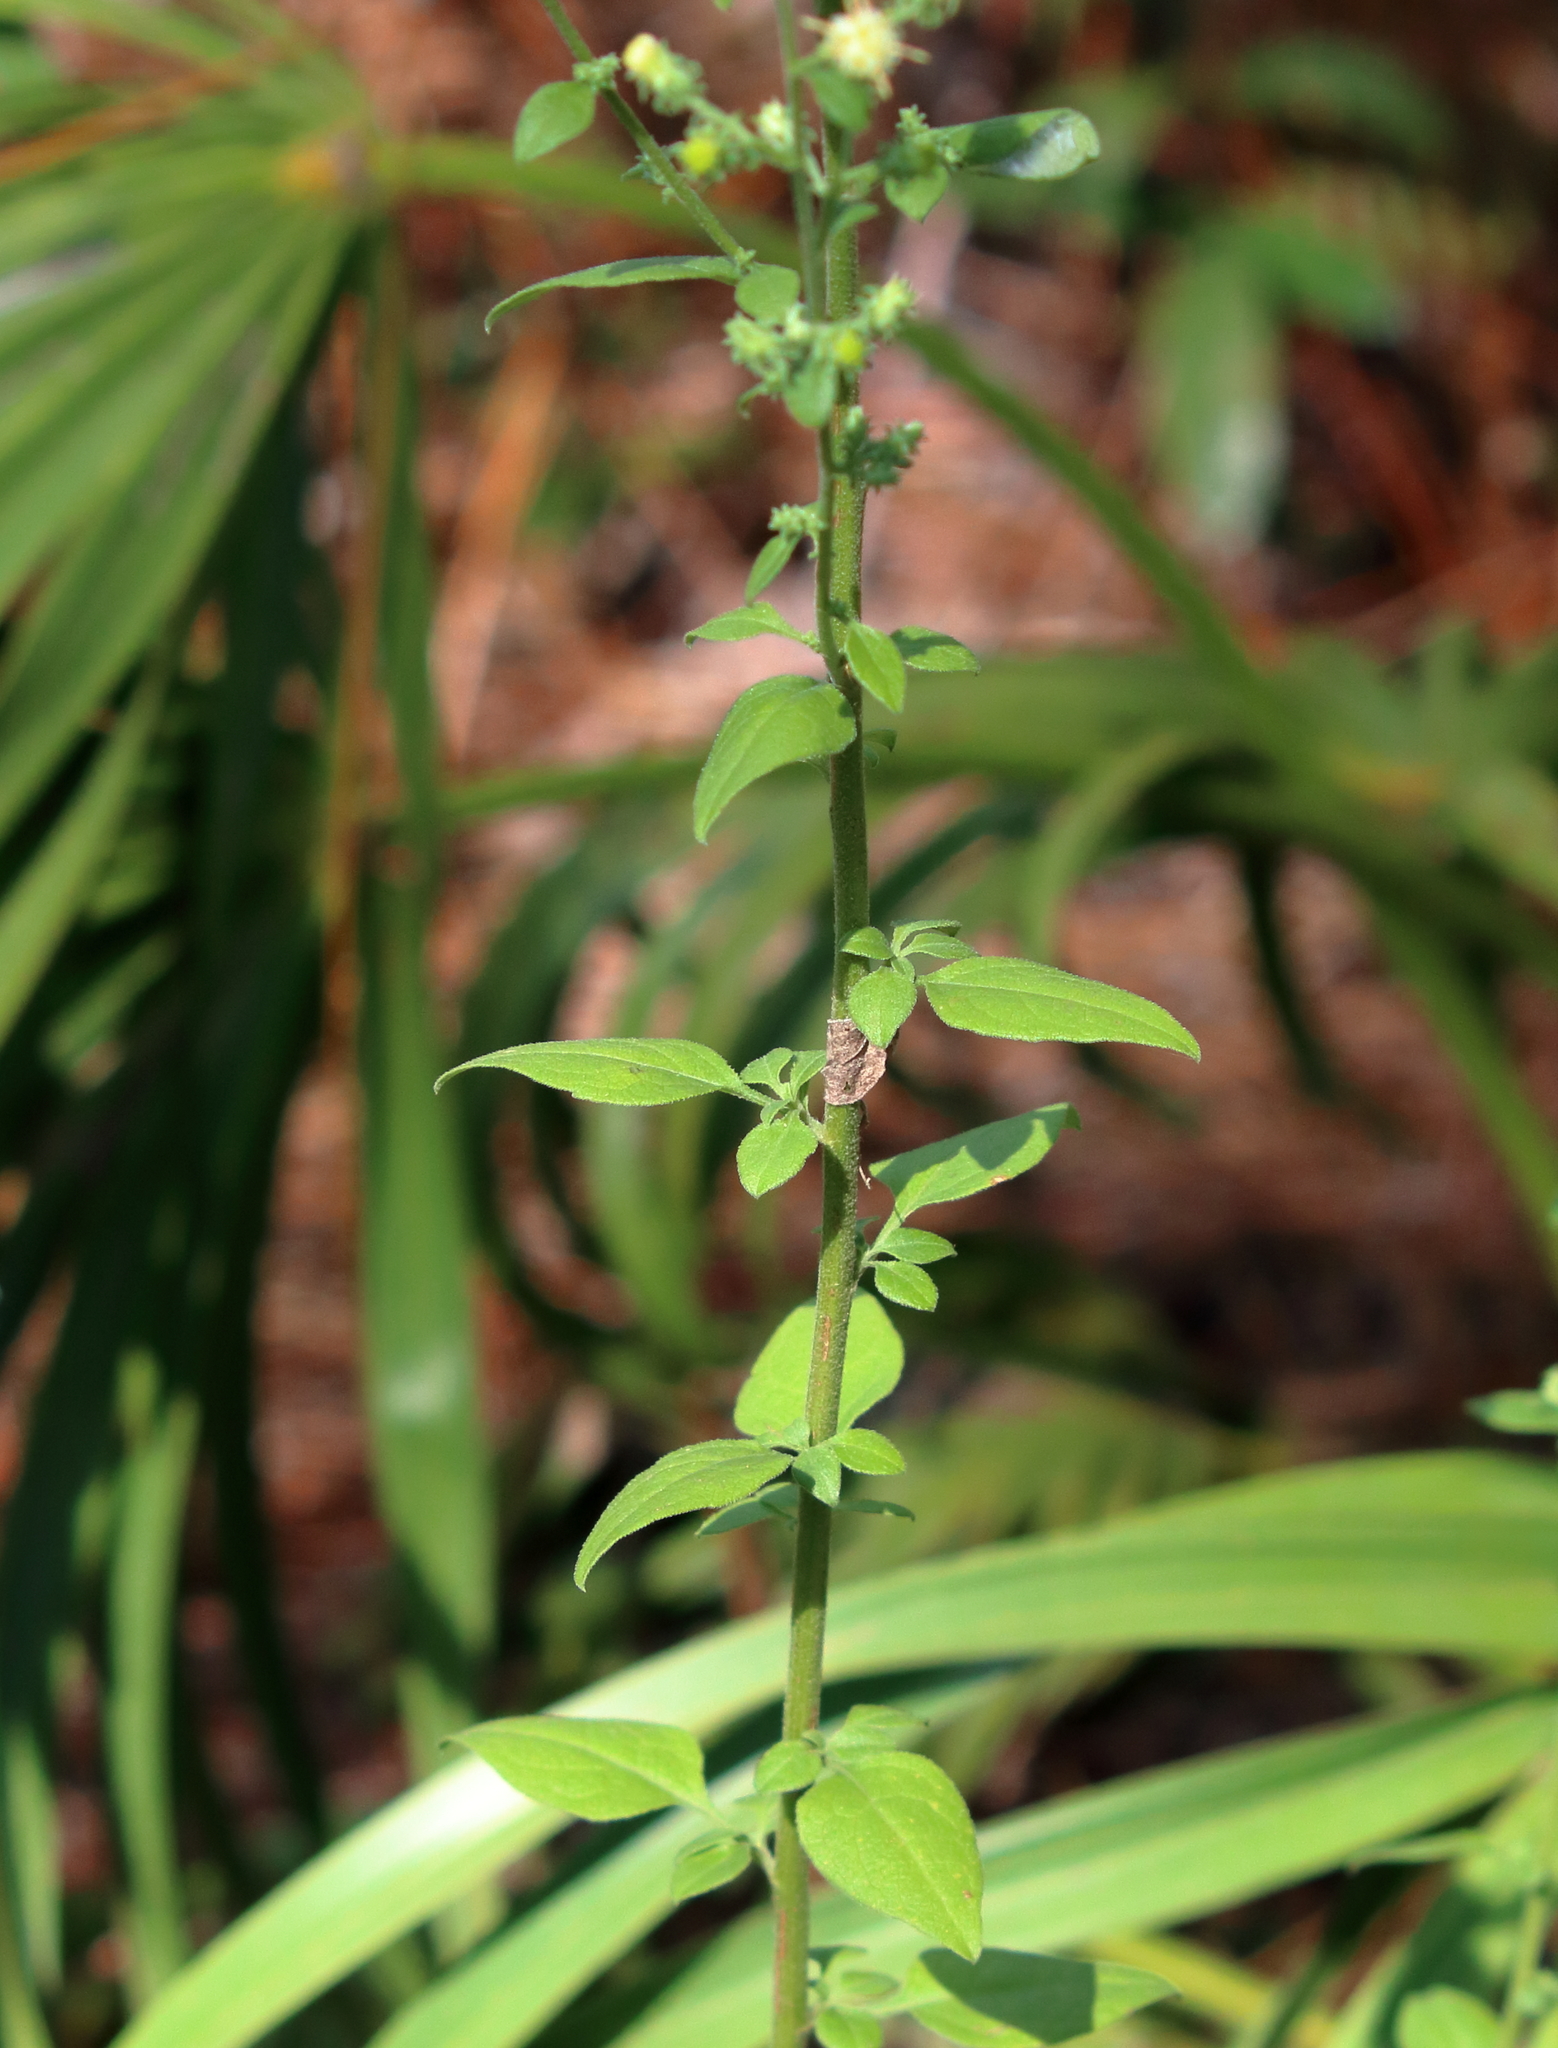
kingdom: Plantae
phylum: Tracheophyta
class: Magnoliopsida
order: Asterales
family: Asteraceae
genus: Solidago
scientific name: Solidago discoidea
